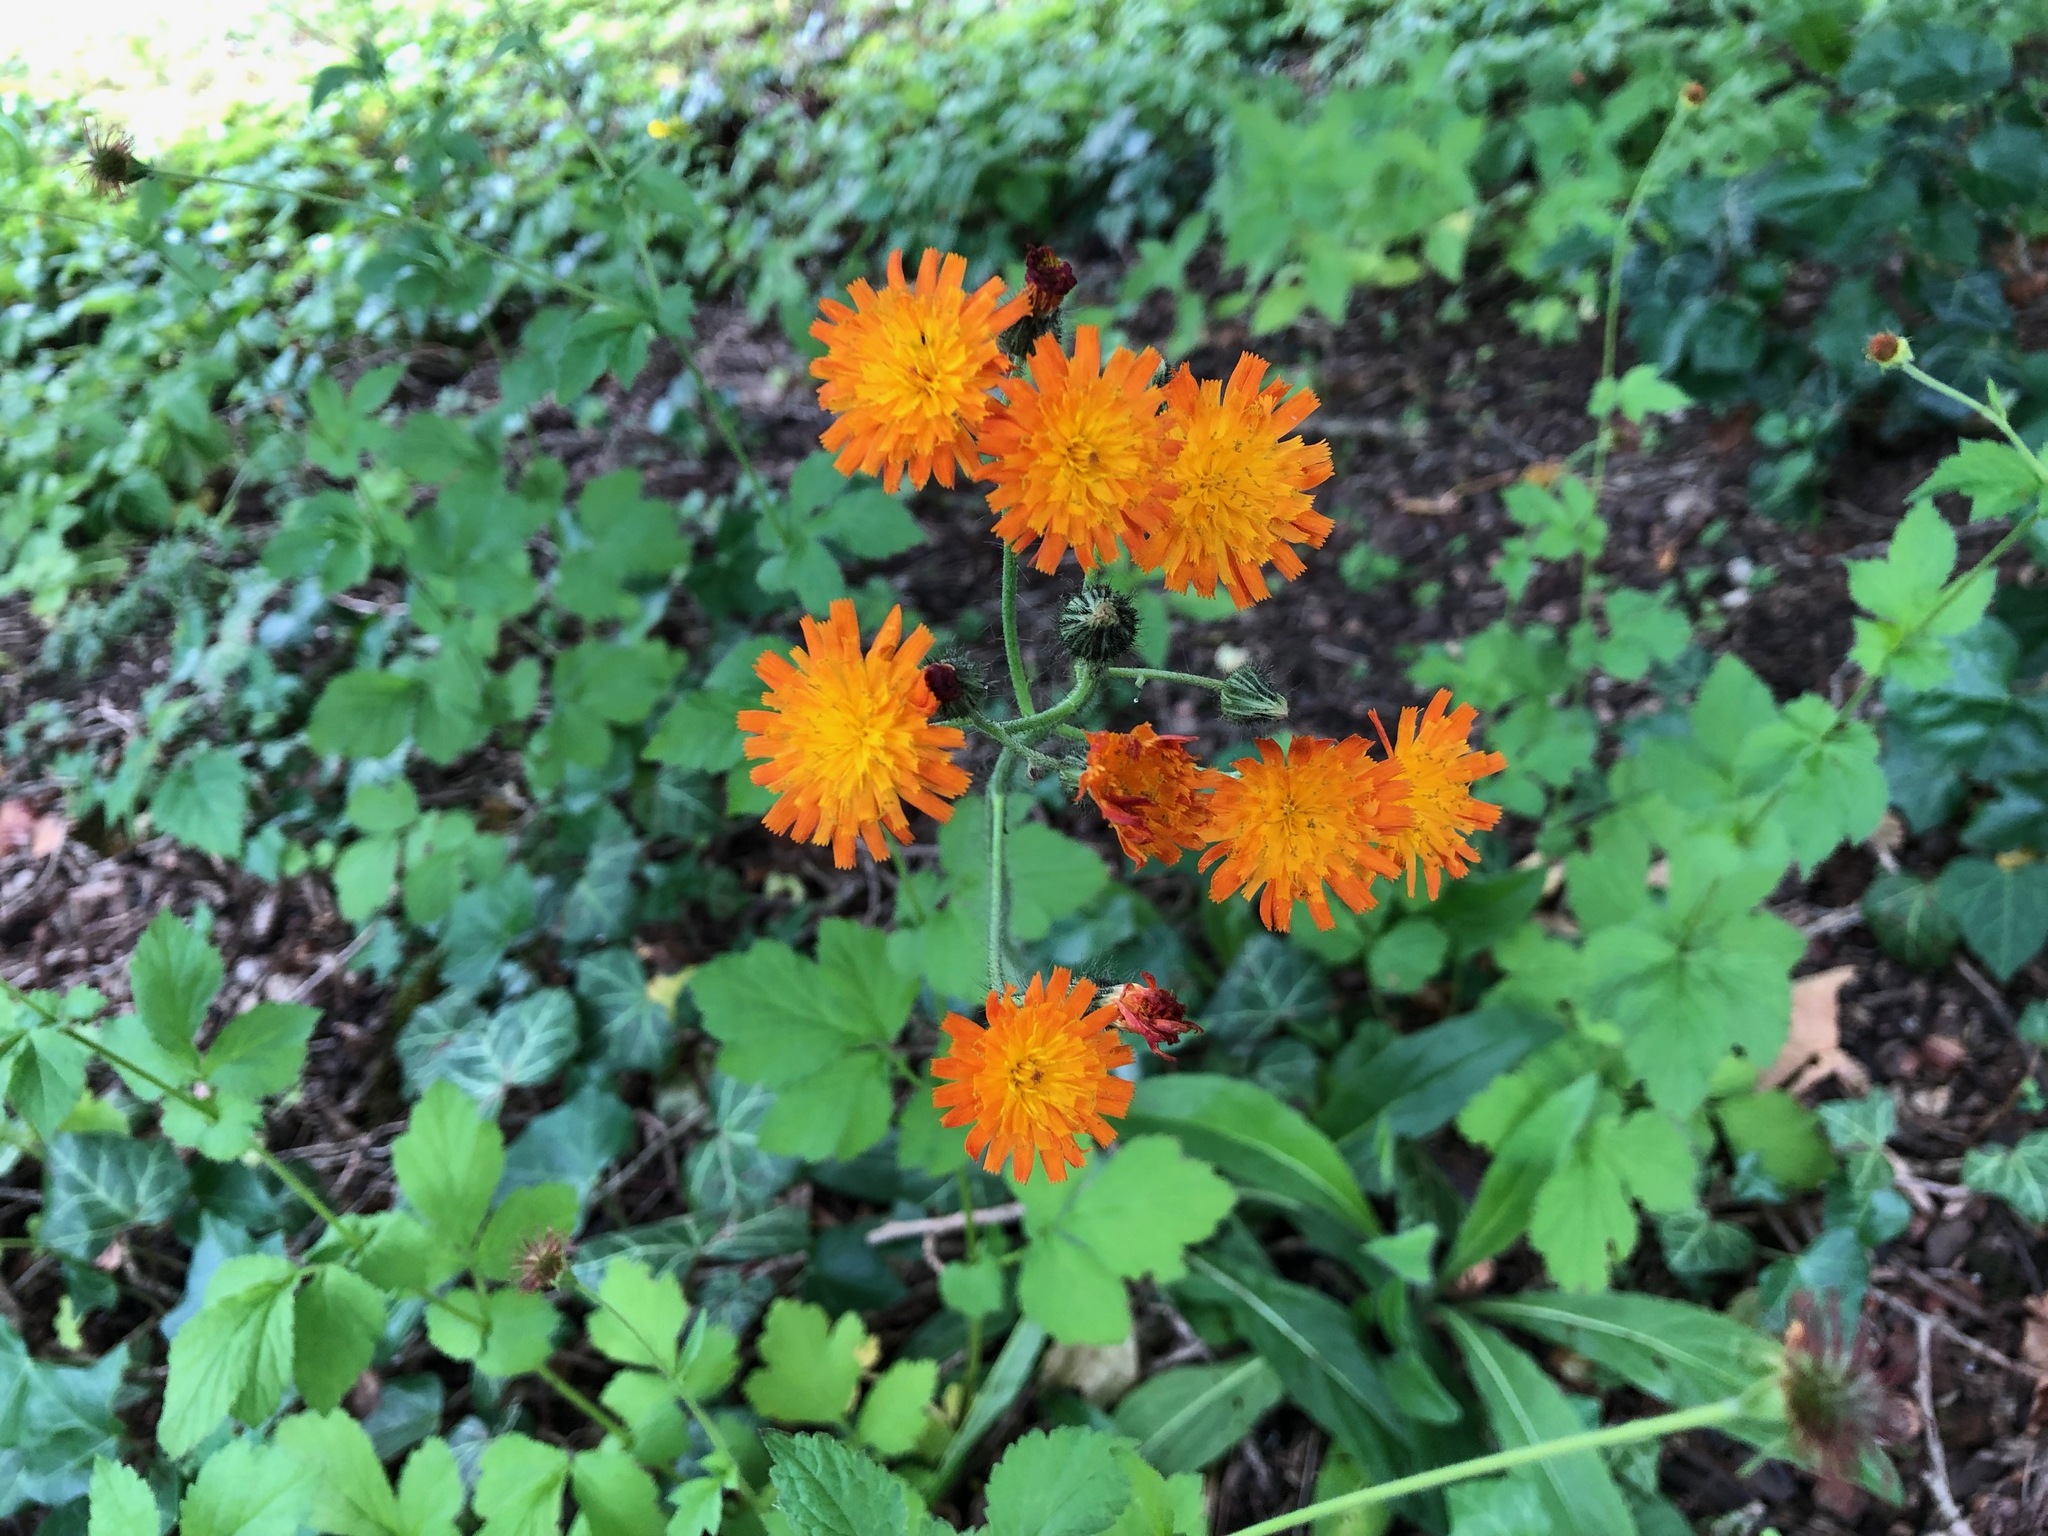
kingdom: Plantae
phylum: Tracheophyta
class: Magnoliopsida
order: Asterales
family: Asteraceae
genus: Pilosella
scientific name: Pilosella aurantiaca
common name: Fox-and-cubs
